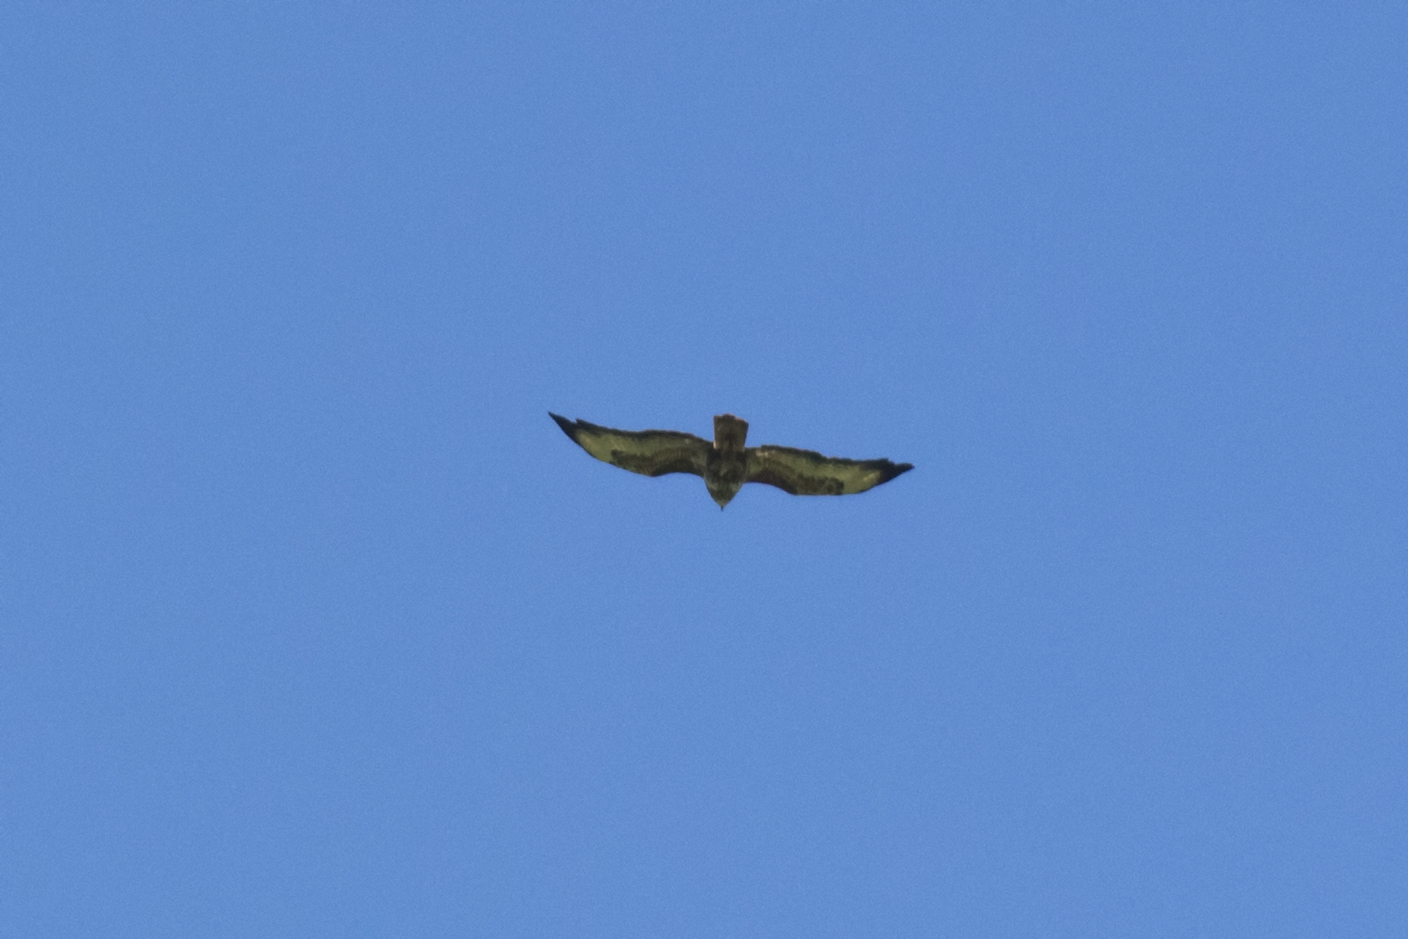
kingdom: Animalia
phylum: Chordata
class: Aves
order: Accipitriformes
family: Accipitridae
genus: Buteo
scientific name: Buteo buteo
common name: Common buzzard
